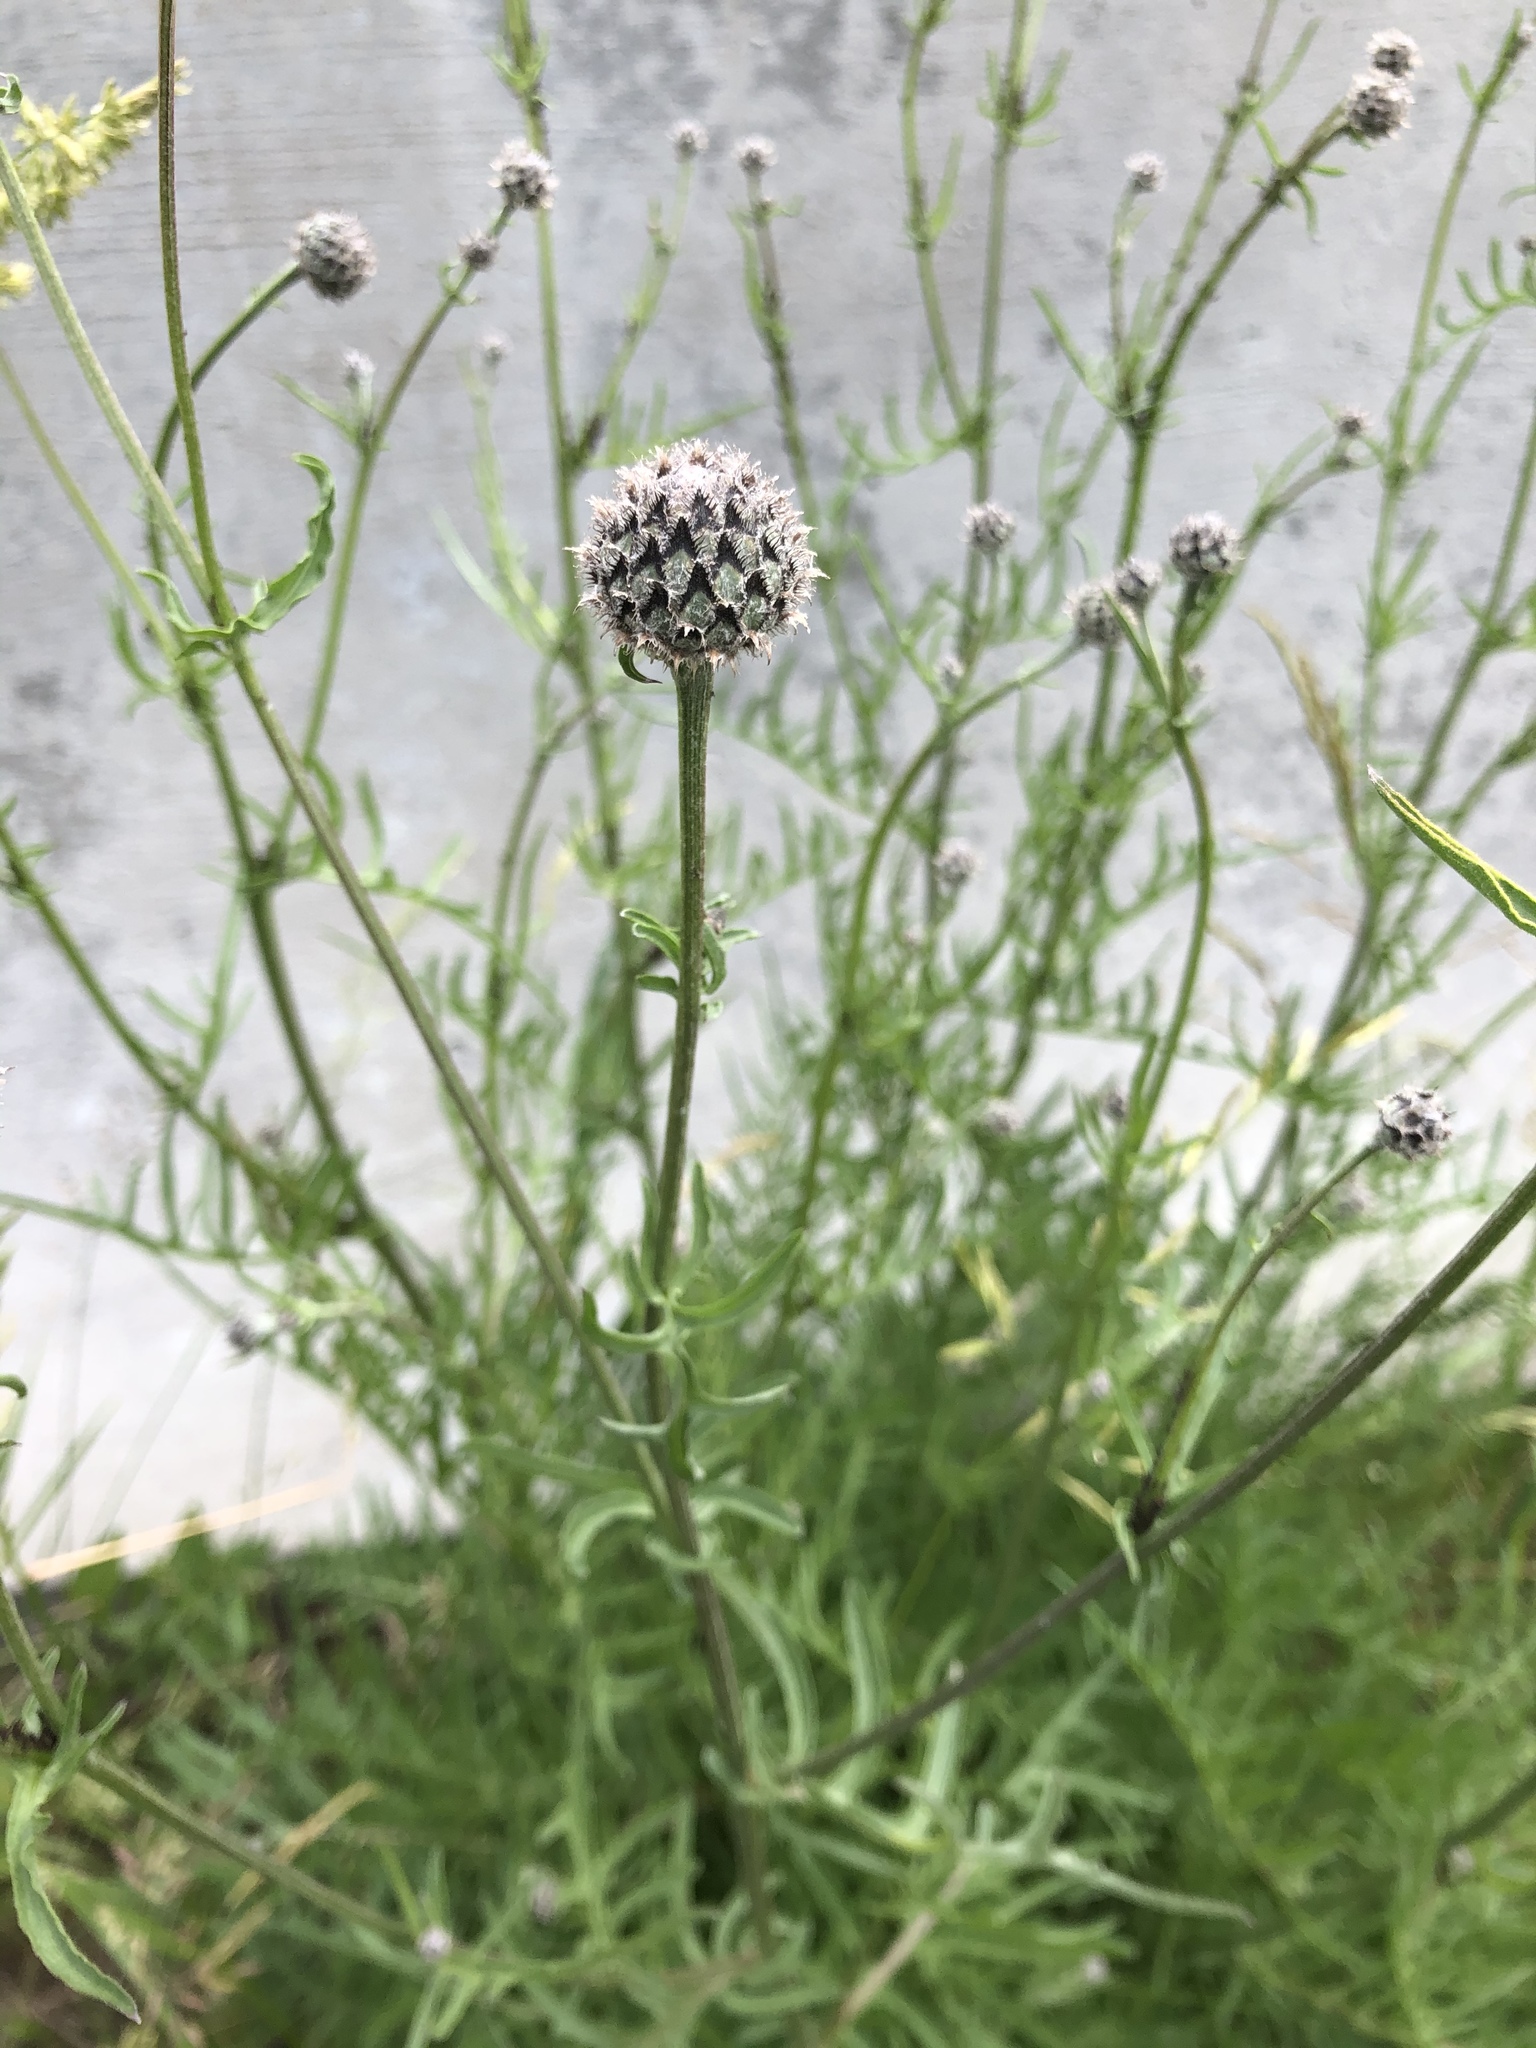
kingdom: Plantae
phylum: Tracheophyta
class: Magnoliopsida
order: Asterales
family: Asteraceae
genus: Centaurea
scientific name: Centaurea scabiosa
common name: Greater knapweed
